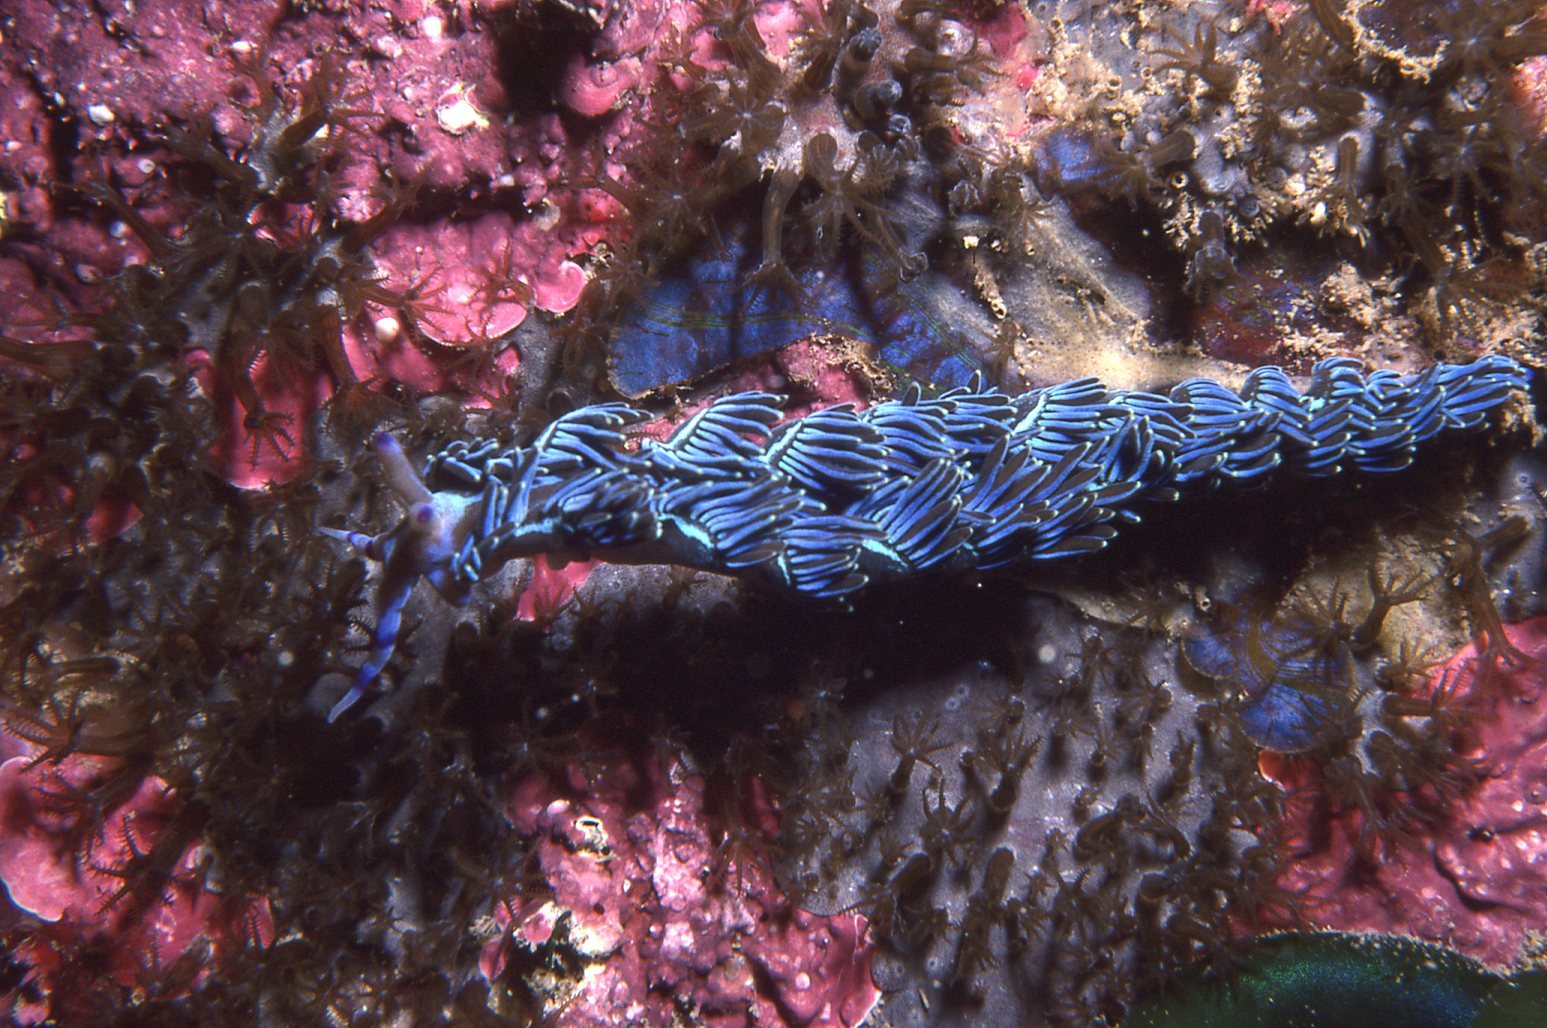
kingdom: Animalia
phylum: Mollusca
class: Gastropoda
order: Nudibranchia
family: Facelinidae
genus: Pteraeolidia
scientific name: Pteraeolidia ianthina
